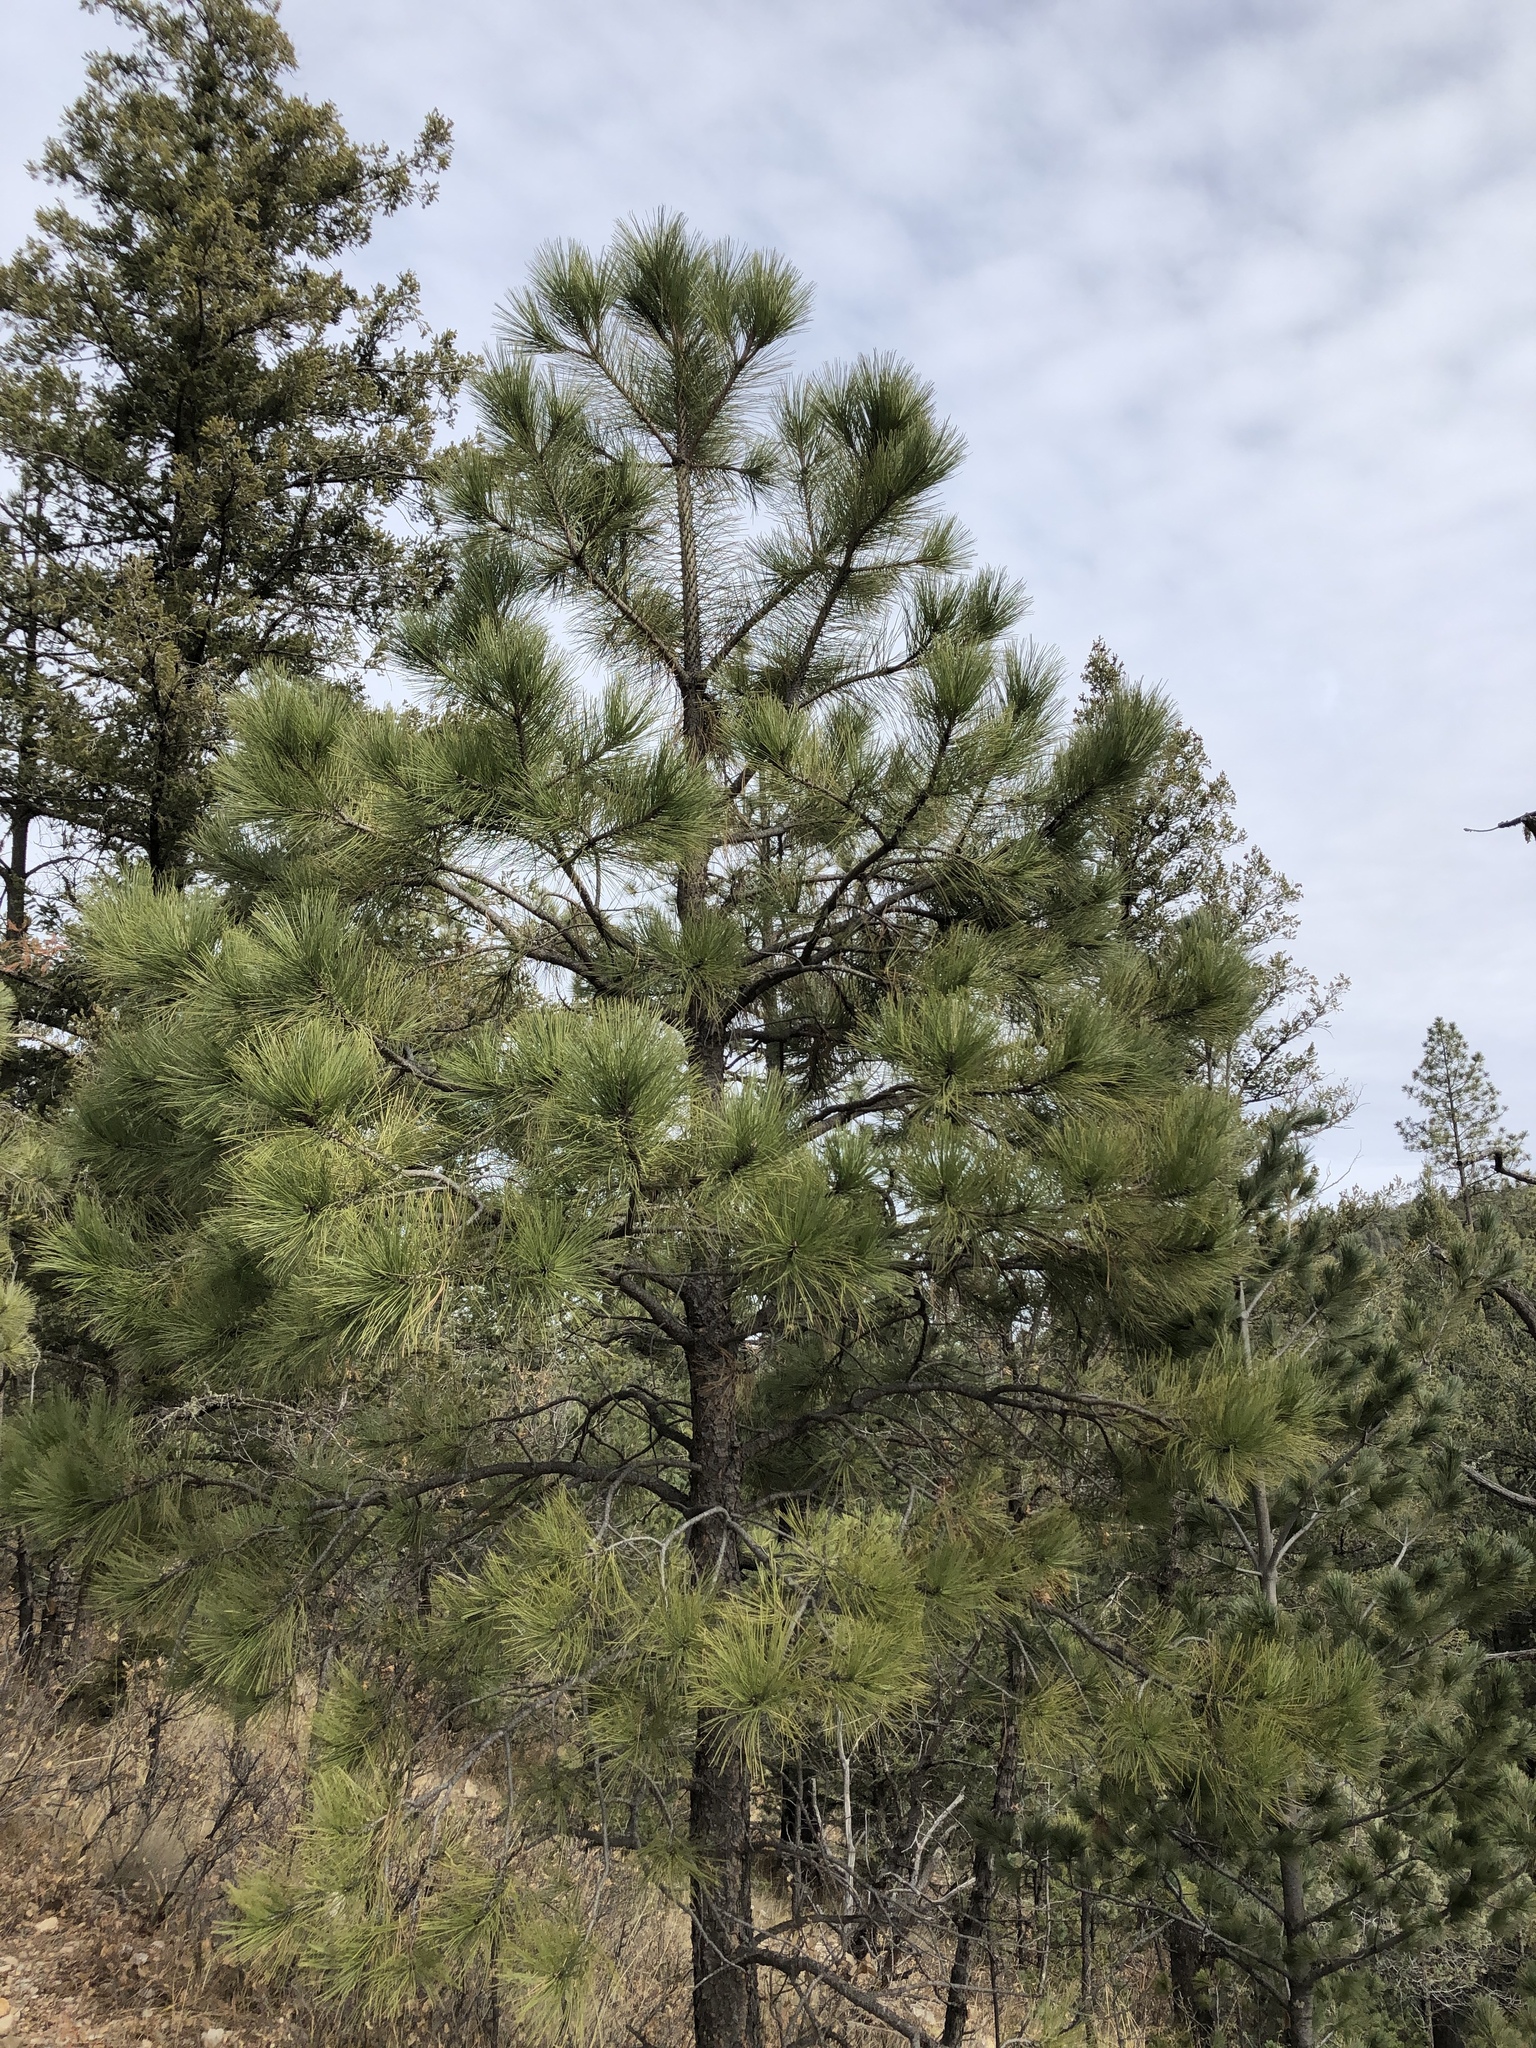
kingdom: Plantae
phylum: Tracheophyta
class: Pinopsida
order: Pinales
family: Pinaceae
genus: Pinus
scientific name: Pinus ponderosa
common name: Western yellow-pine
